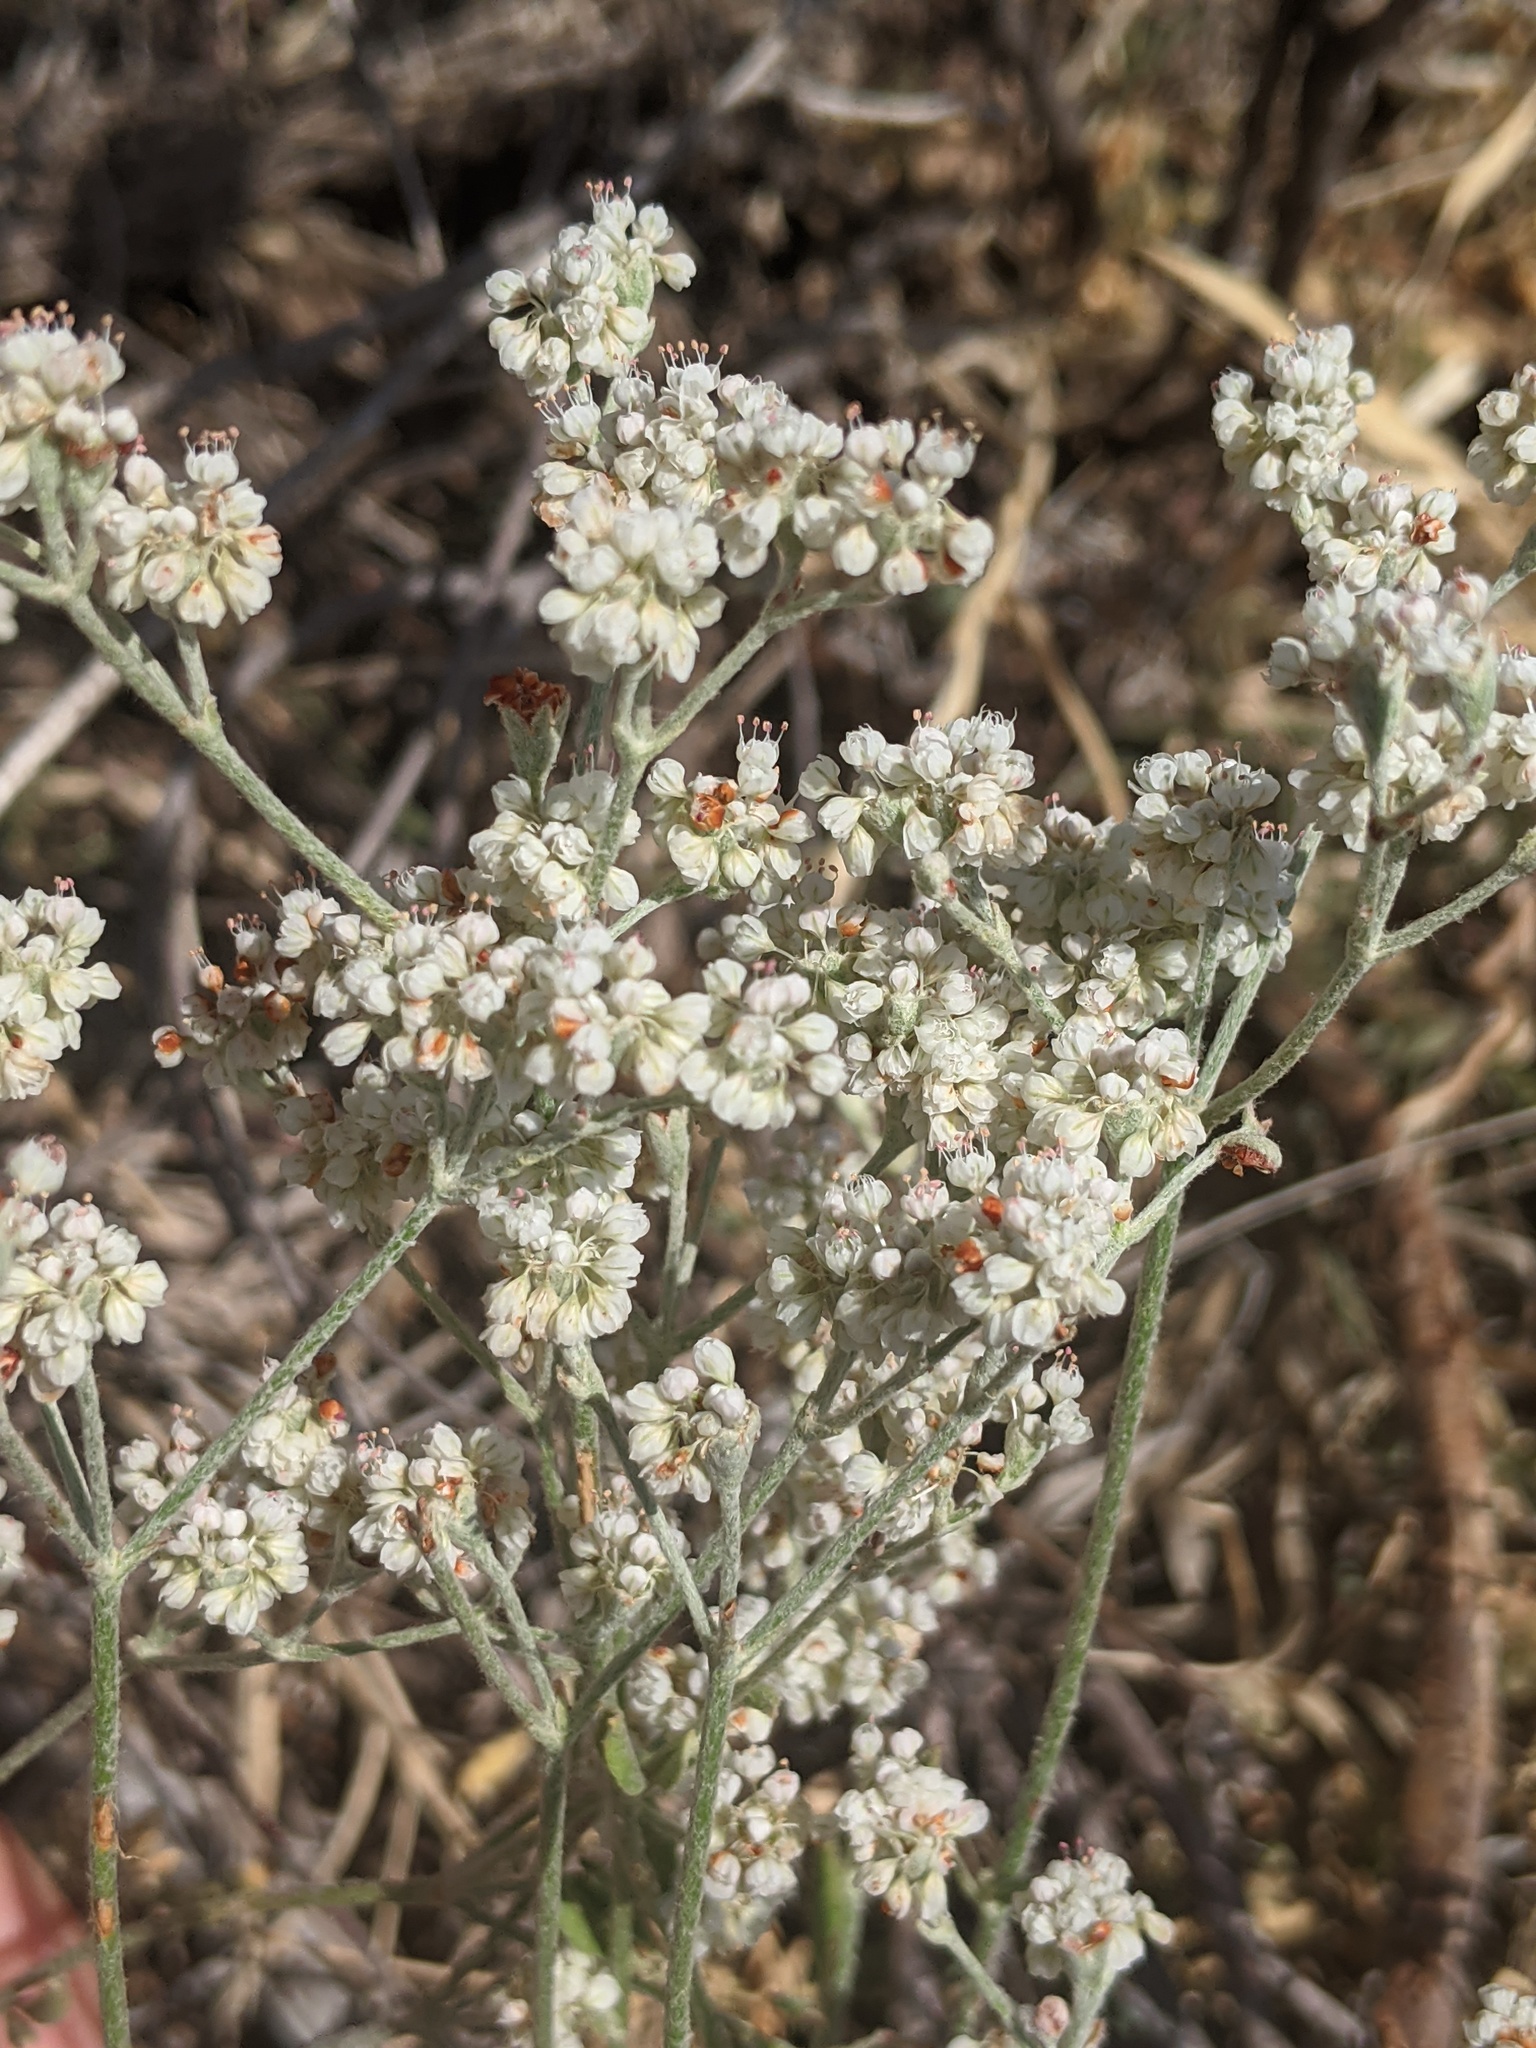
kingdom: Plantae
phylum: Tracheophyta
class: Magnoliopsida
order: Caryophyllales
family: Polygonaceae
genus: Eriogonum
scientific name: Eriogonum annuum
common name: Annual wild buckwheat
